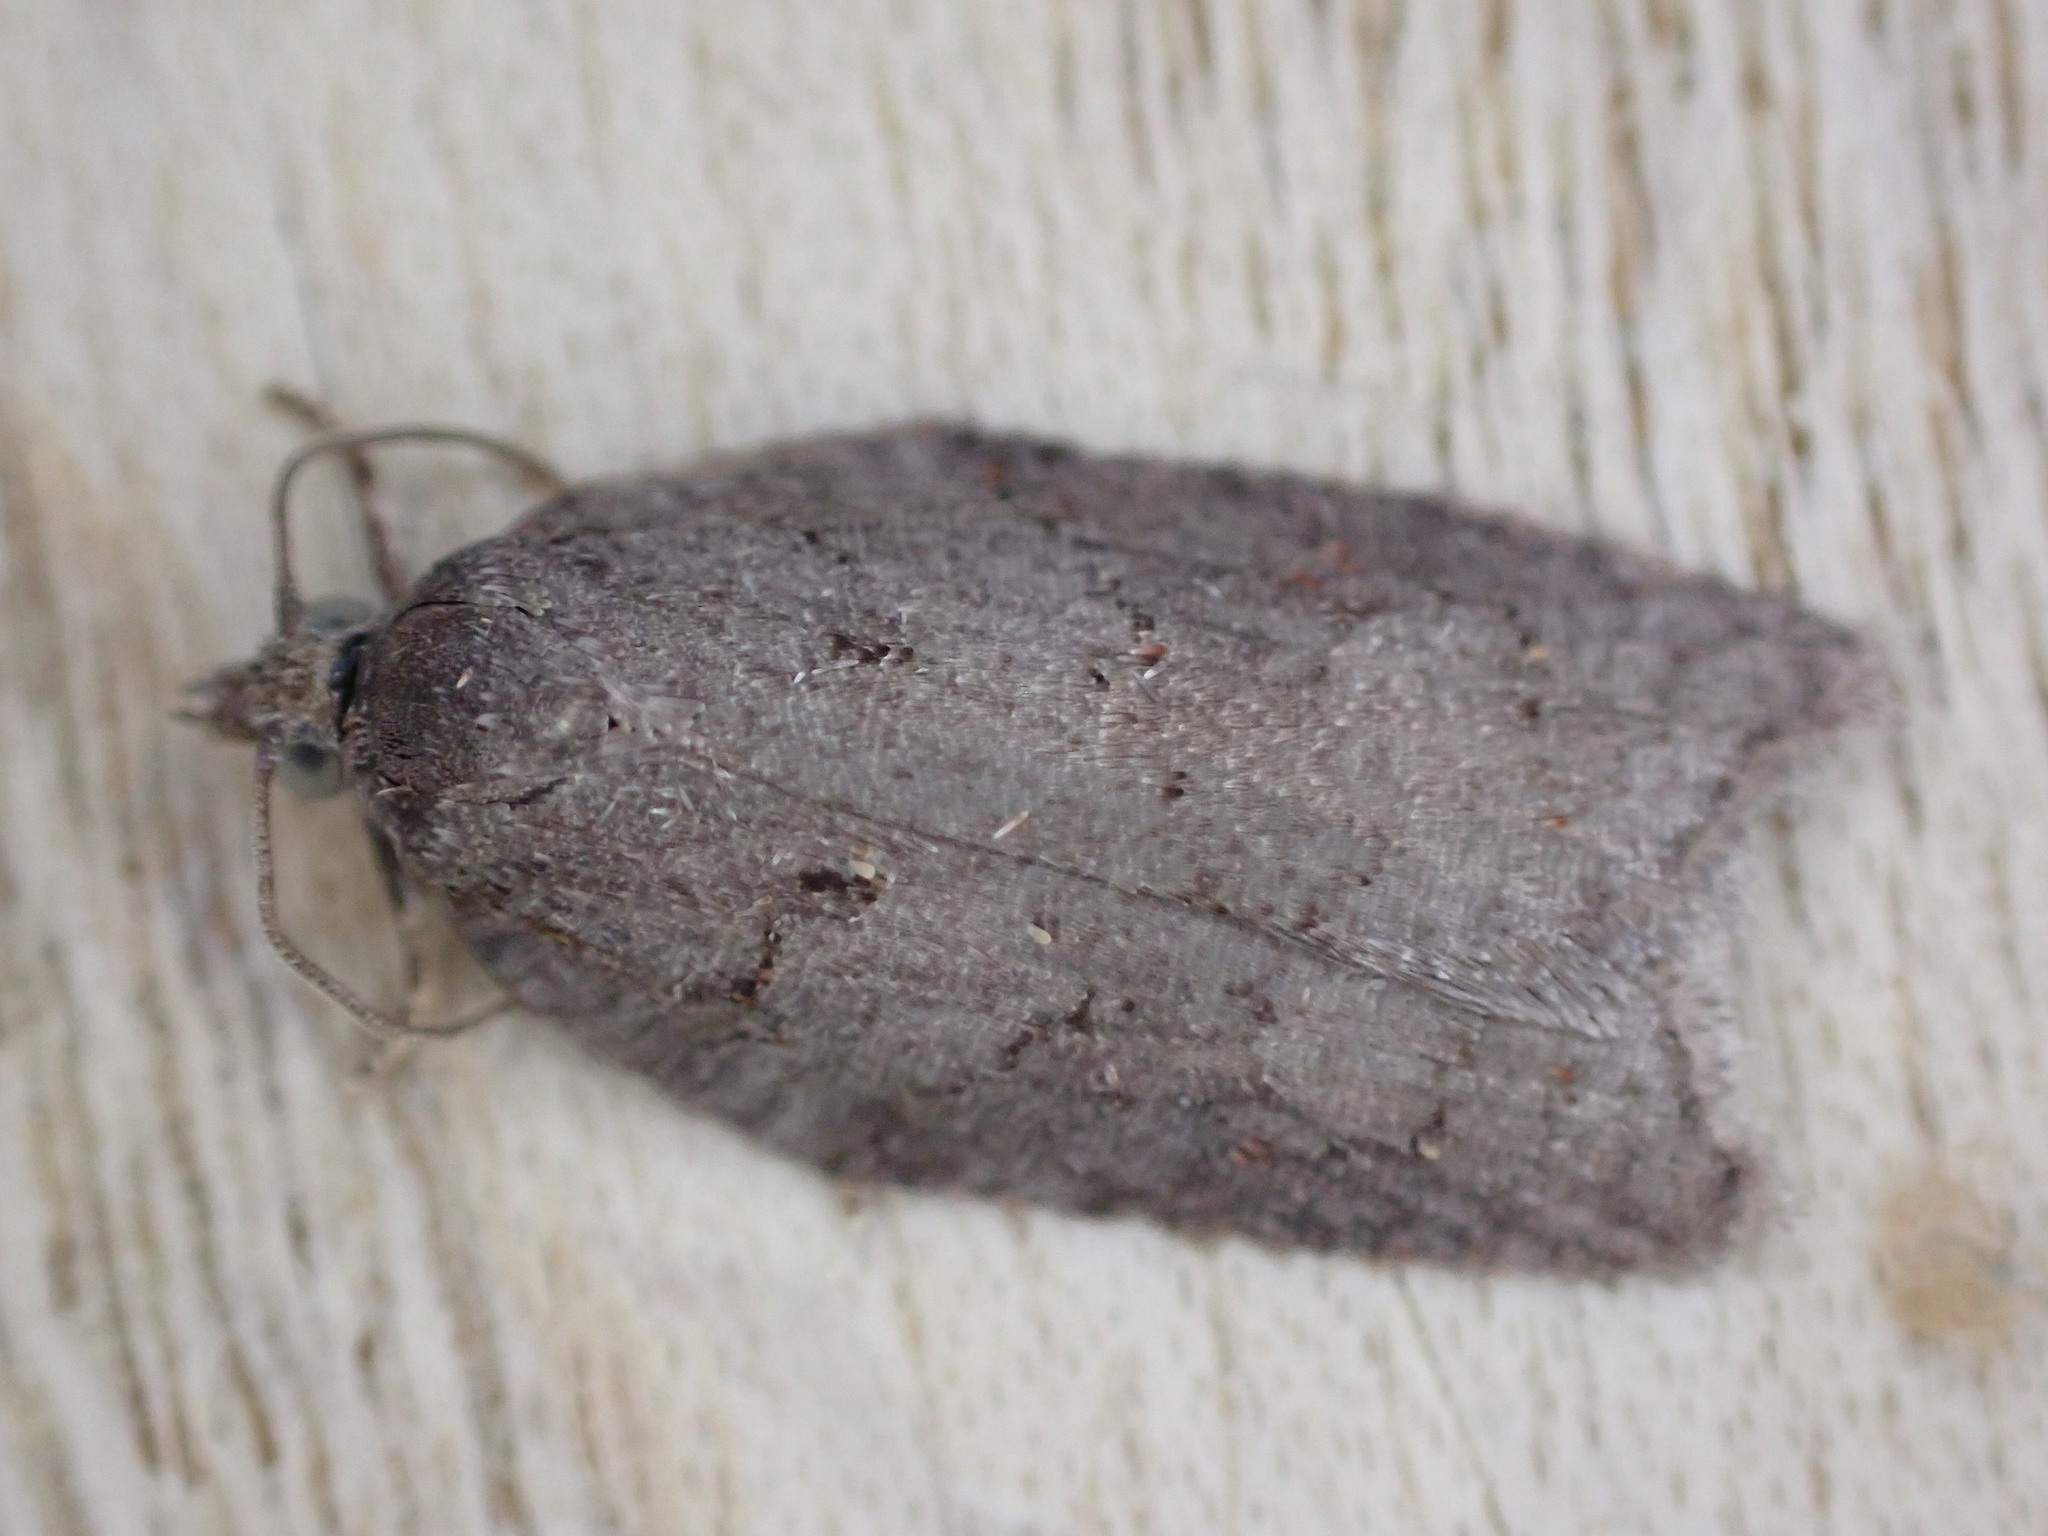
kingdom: Animalia
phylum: Arthropoda
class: Insecta
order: Lepidoptera
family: Tortricidae
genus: Acleris
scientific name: Acleris sparsana
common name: Ashy button
